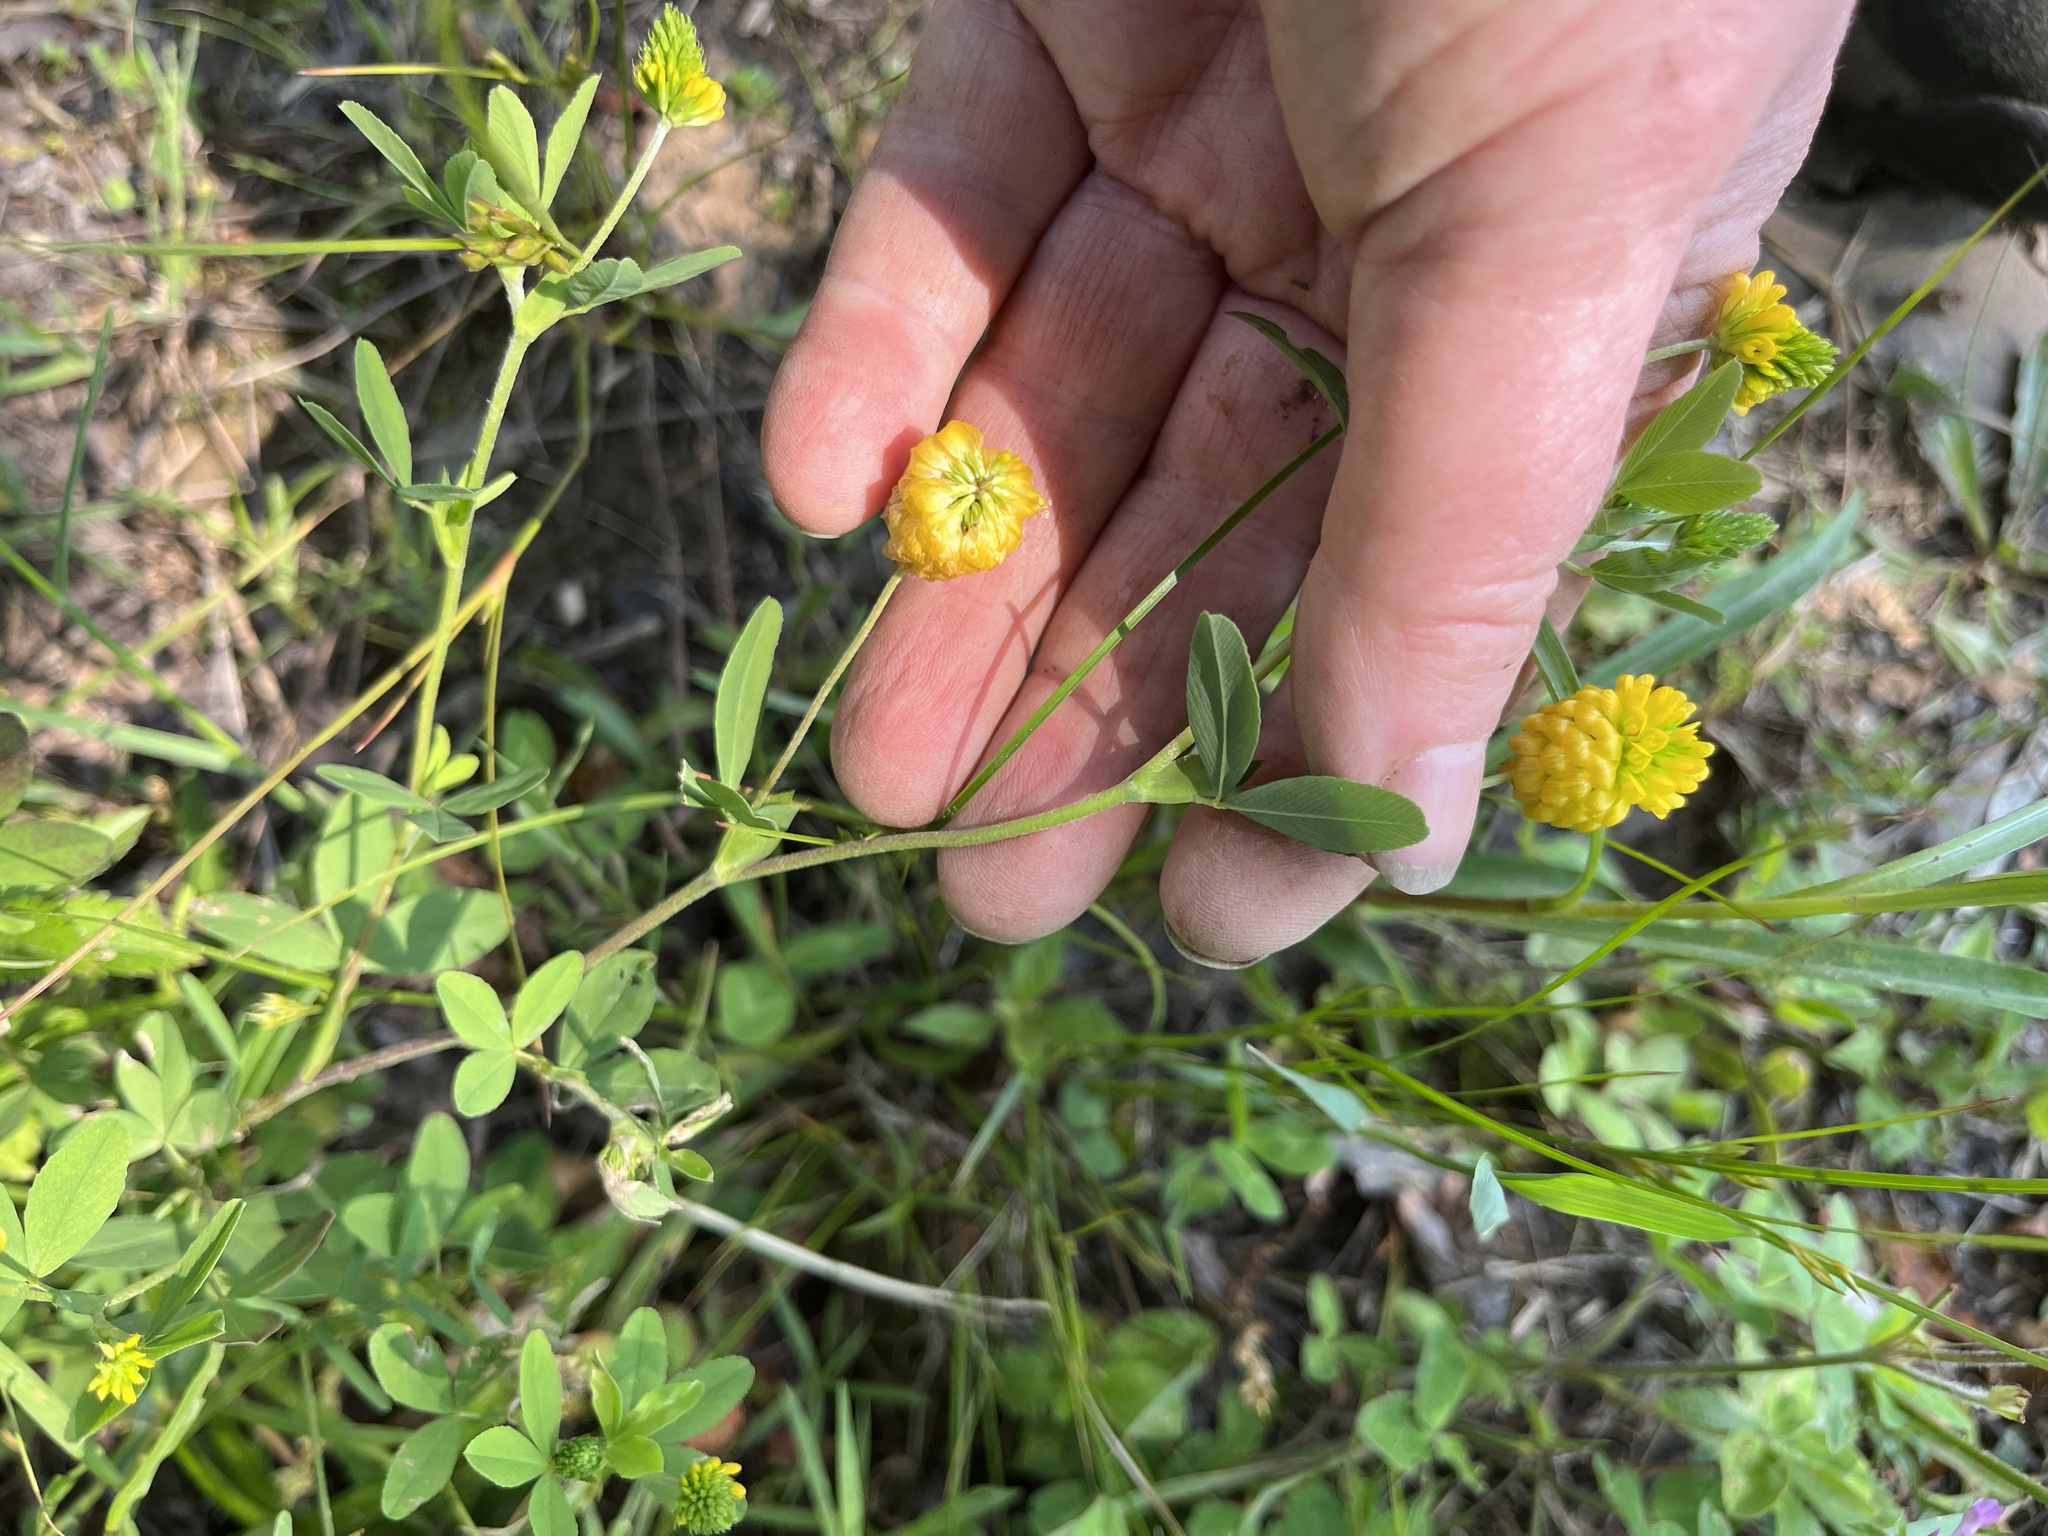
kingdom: Plantae
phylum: Tracheophyta
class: Magnoliopsida
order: Fabales
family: Fabaceae
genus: Trifolium
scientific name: Trifolium aureum
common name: Golden clover
